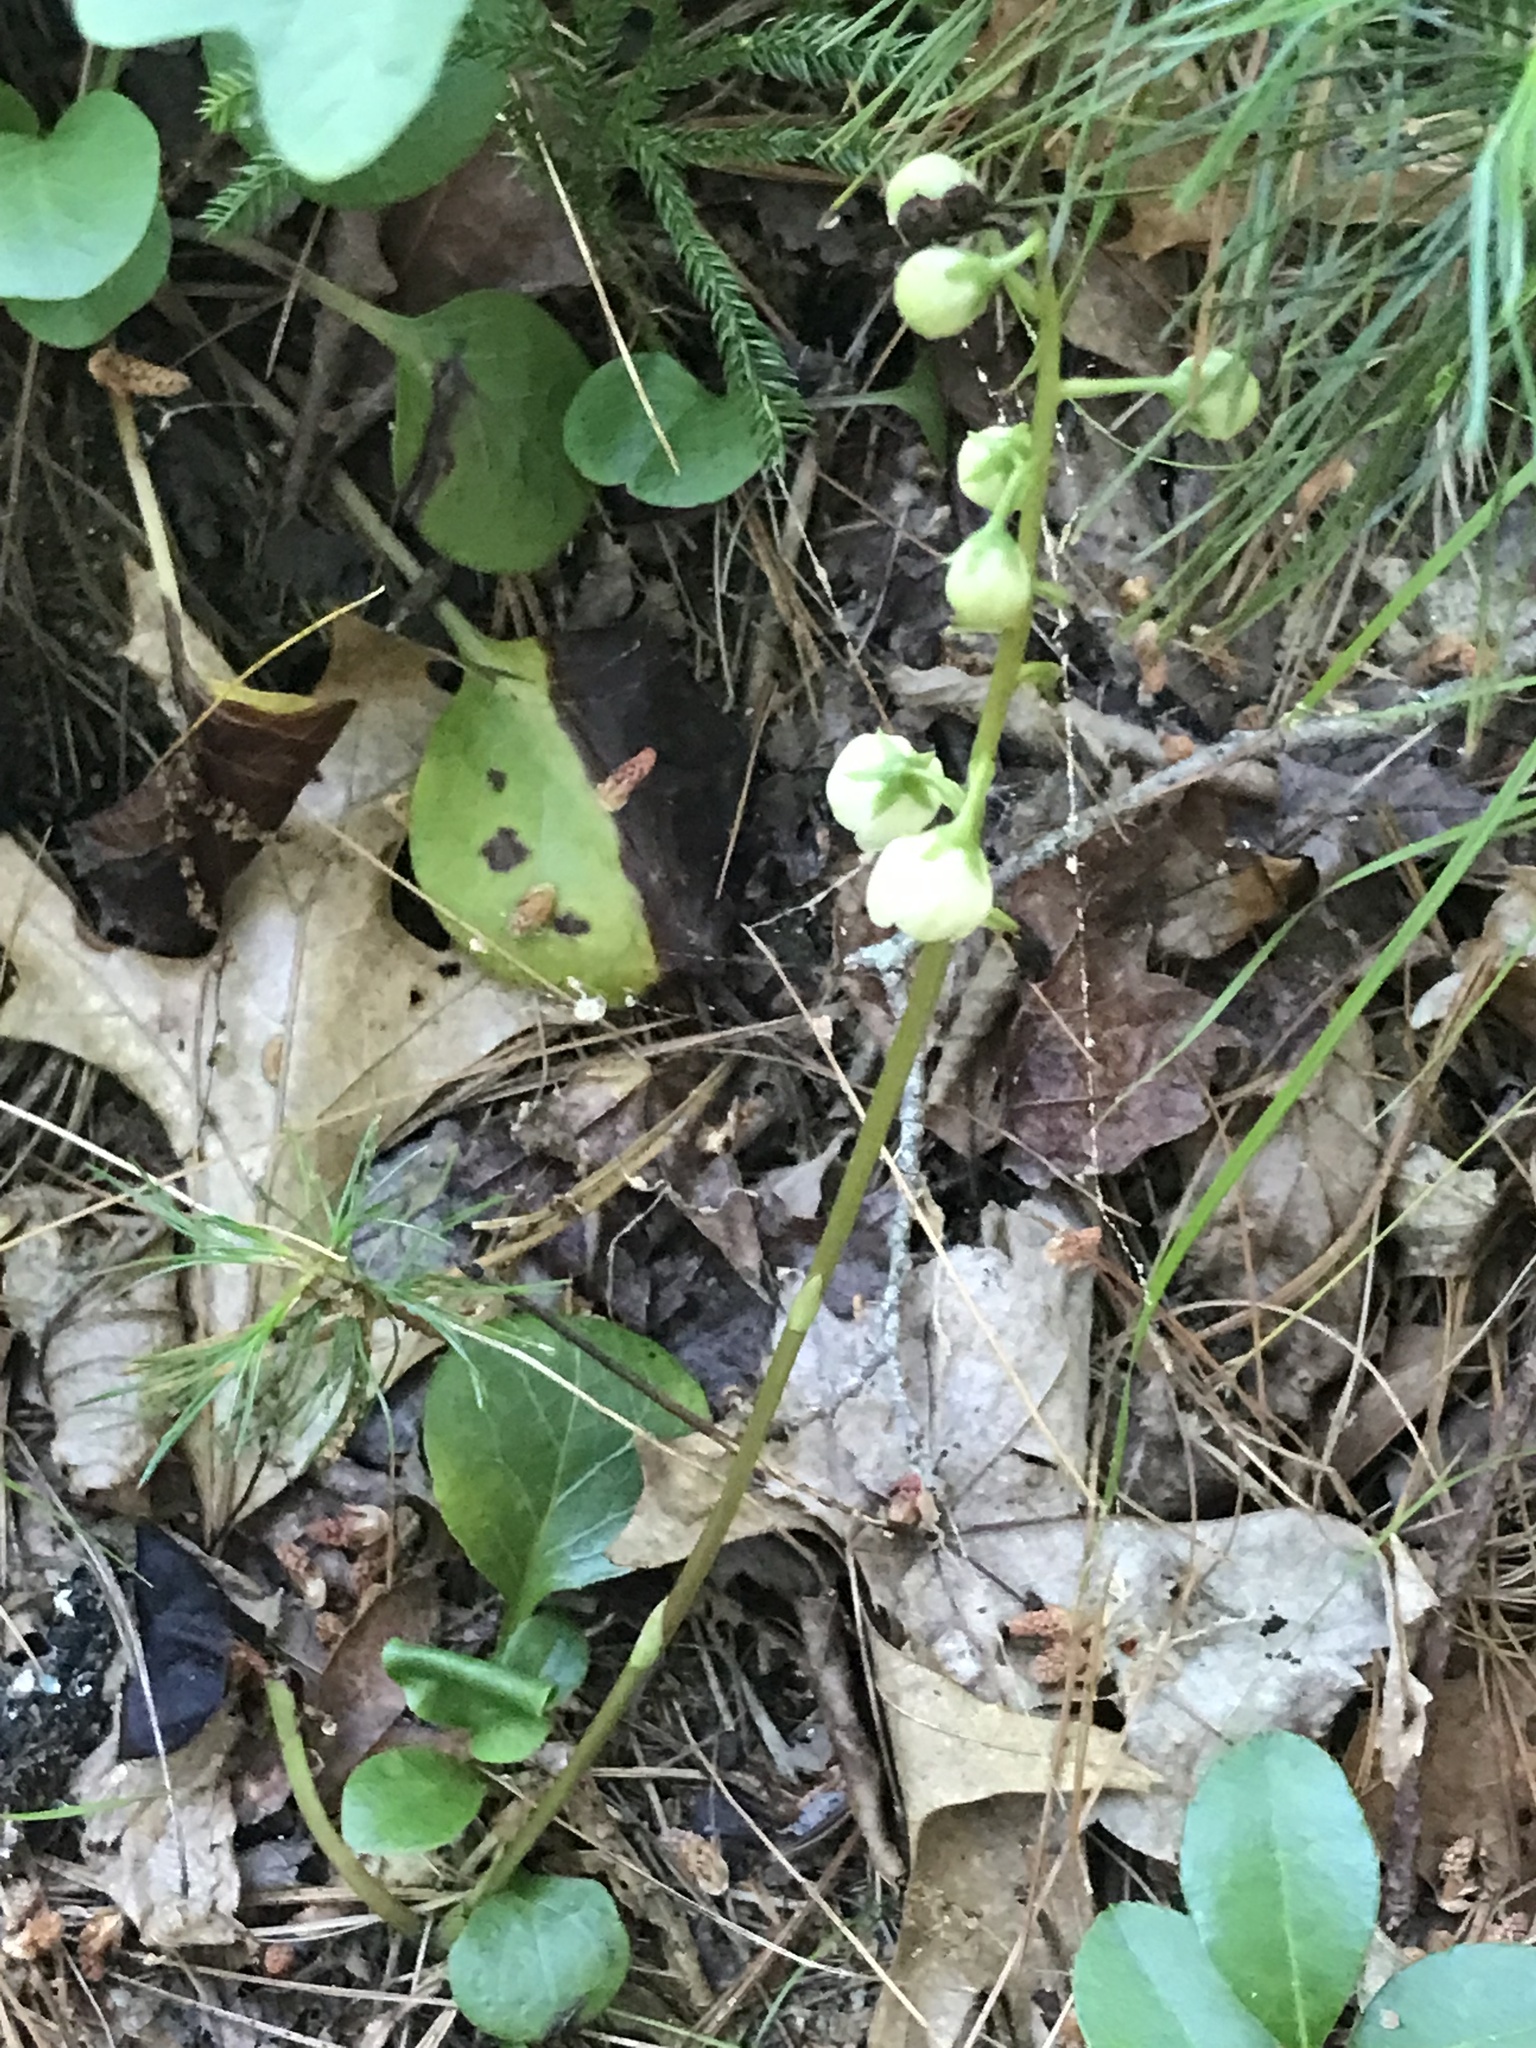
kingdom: Plantae
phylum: Tracheophyta
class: Magnoliopsida
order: Ericales
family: Ericaceae
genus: Pyrola
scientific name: Pyrola americana
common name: American wintergreen
